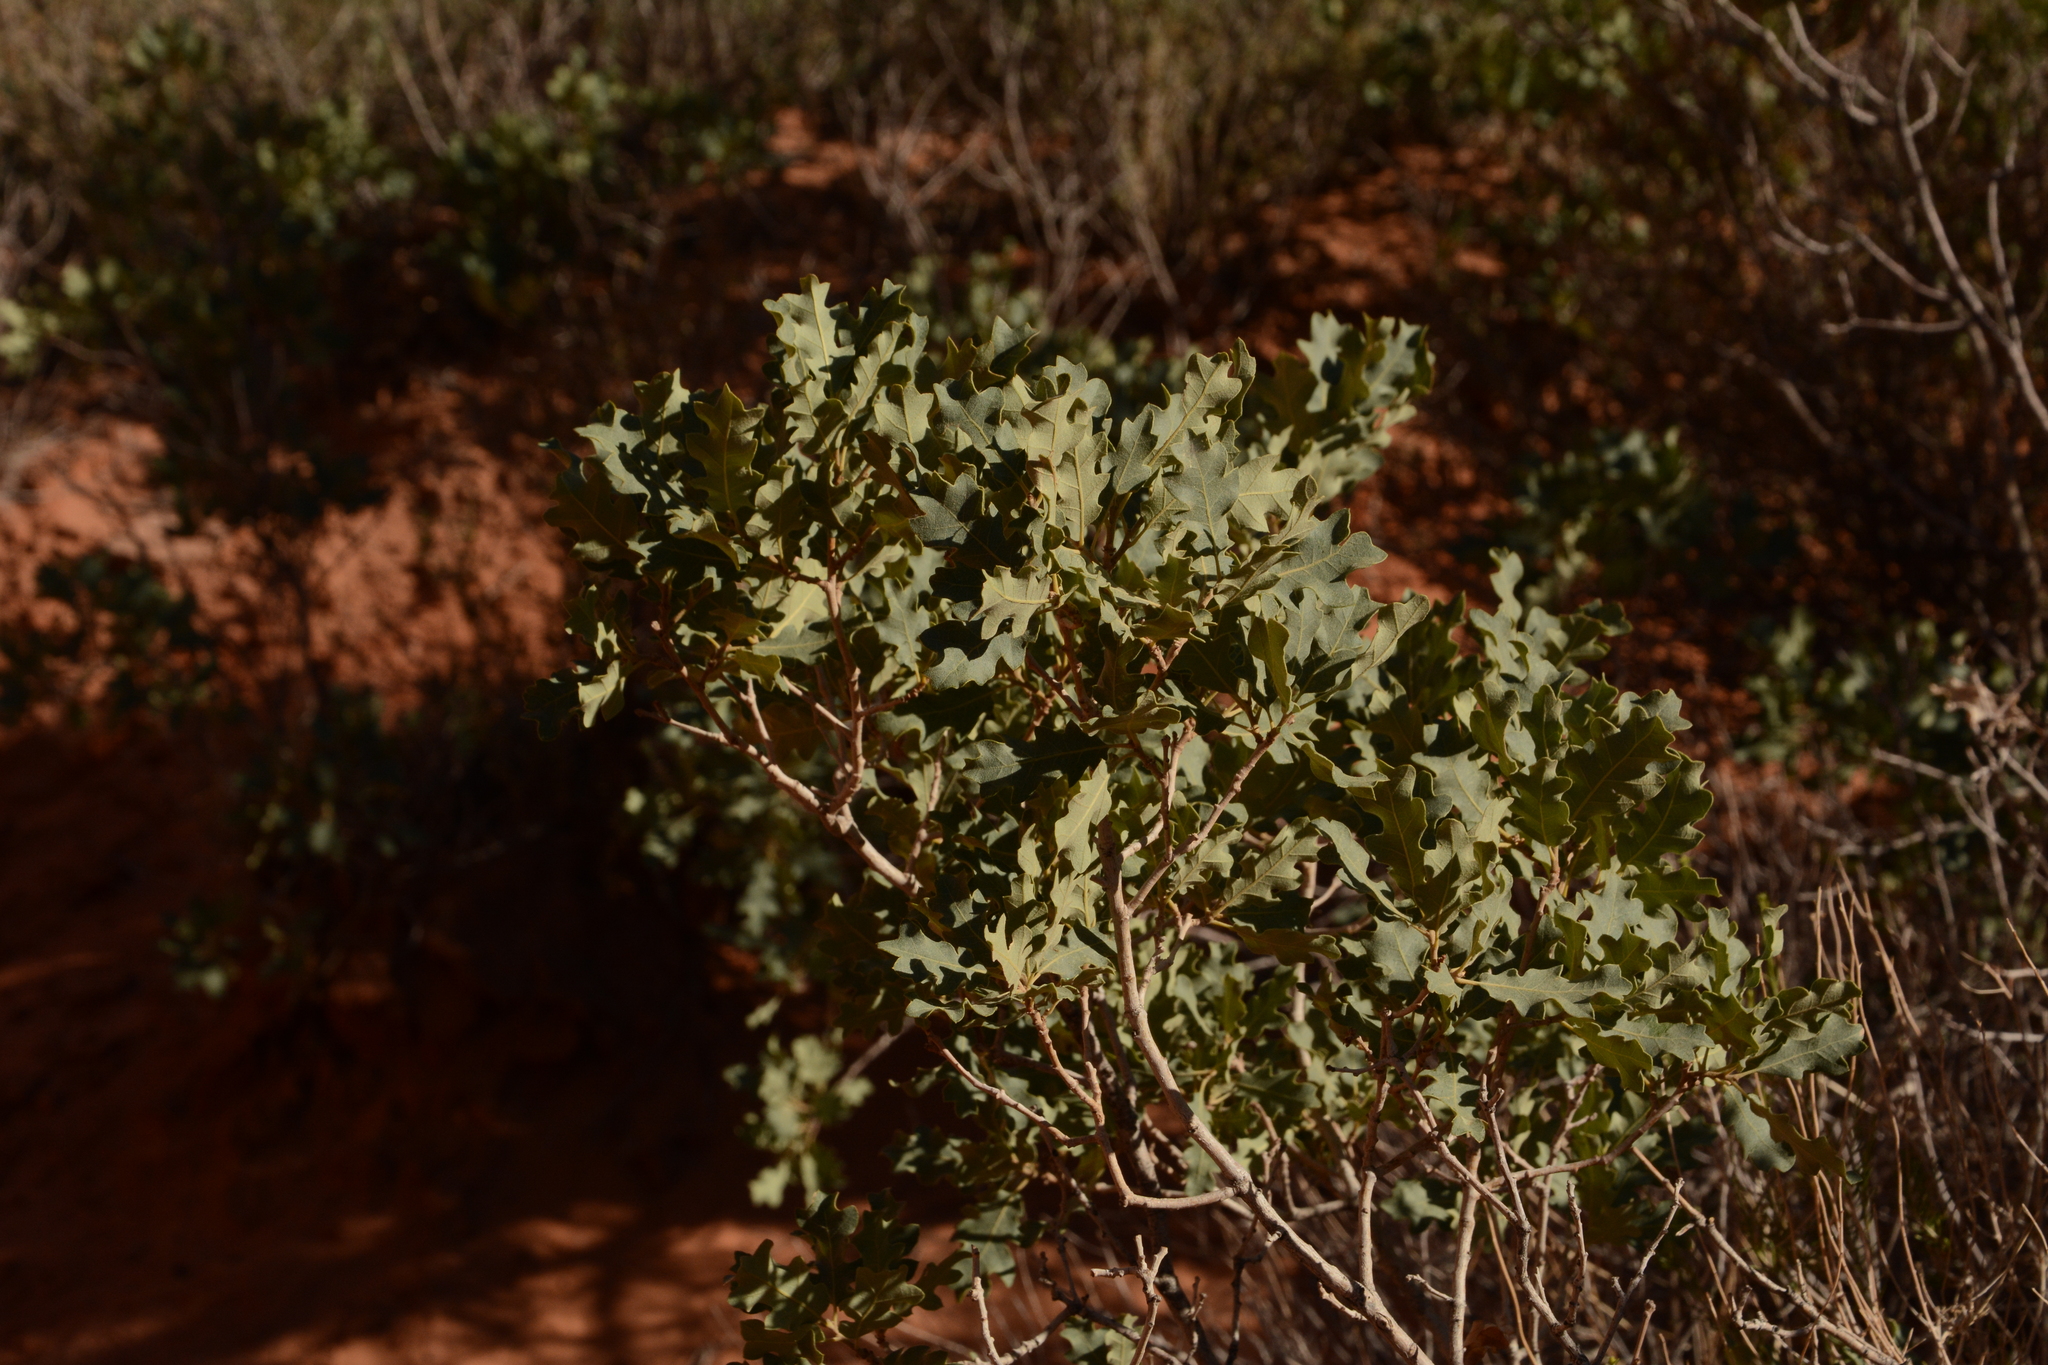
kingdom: Plantae
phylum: Tracheophyta
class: Magnoliopsida
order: Fagales
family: Fagaceae
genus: Quercus
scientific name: Quercus welshii
